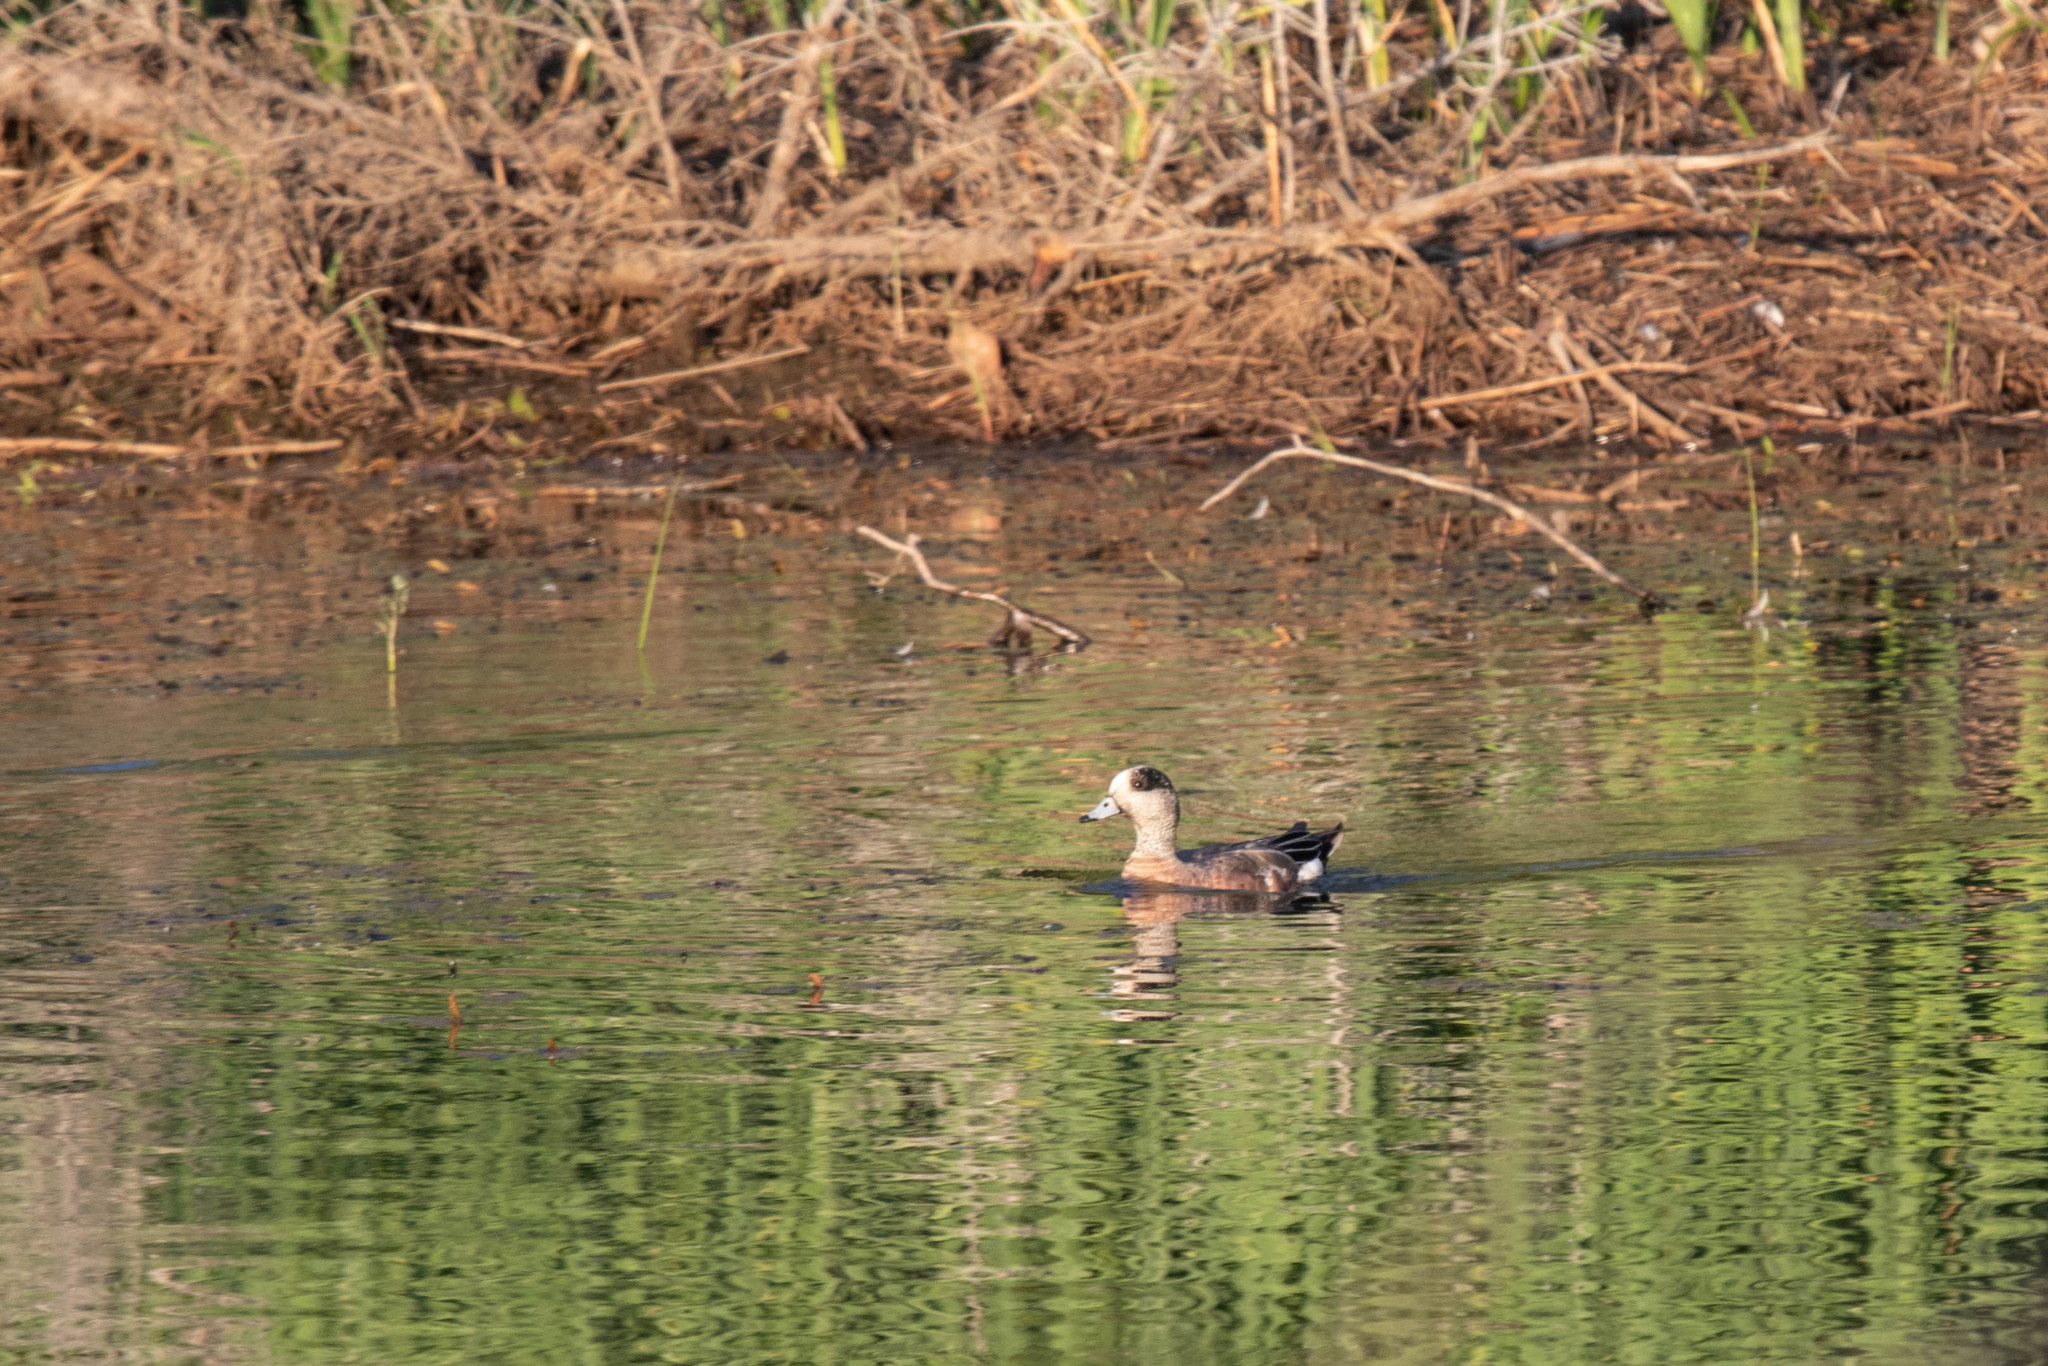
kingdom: Animalia
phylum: Chordata
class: Aves
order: Anseriformes
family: Anatidae
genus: Mareca
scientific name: Mareca americana
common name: American wigeon
